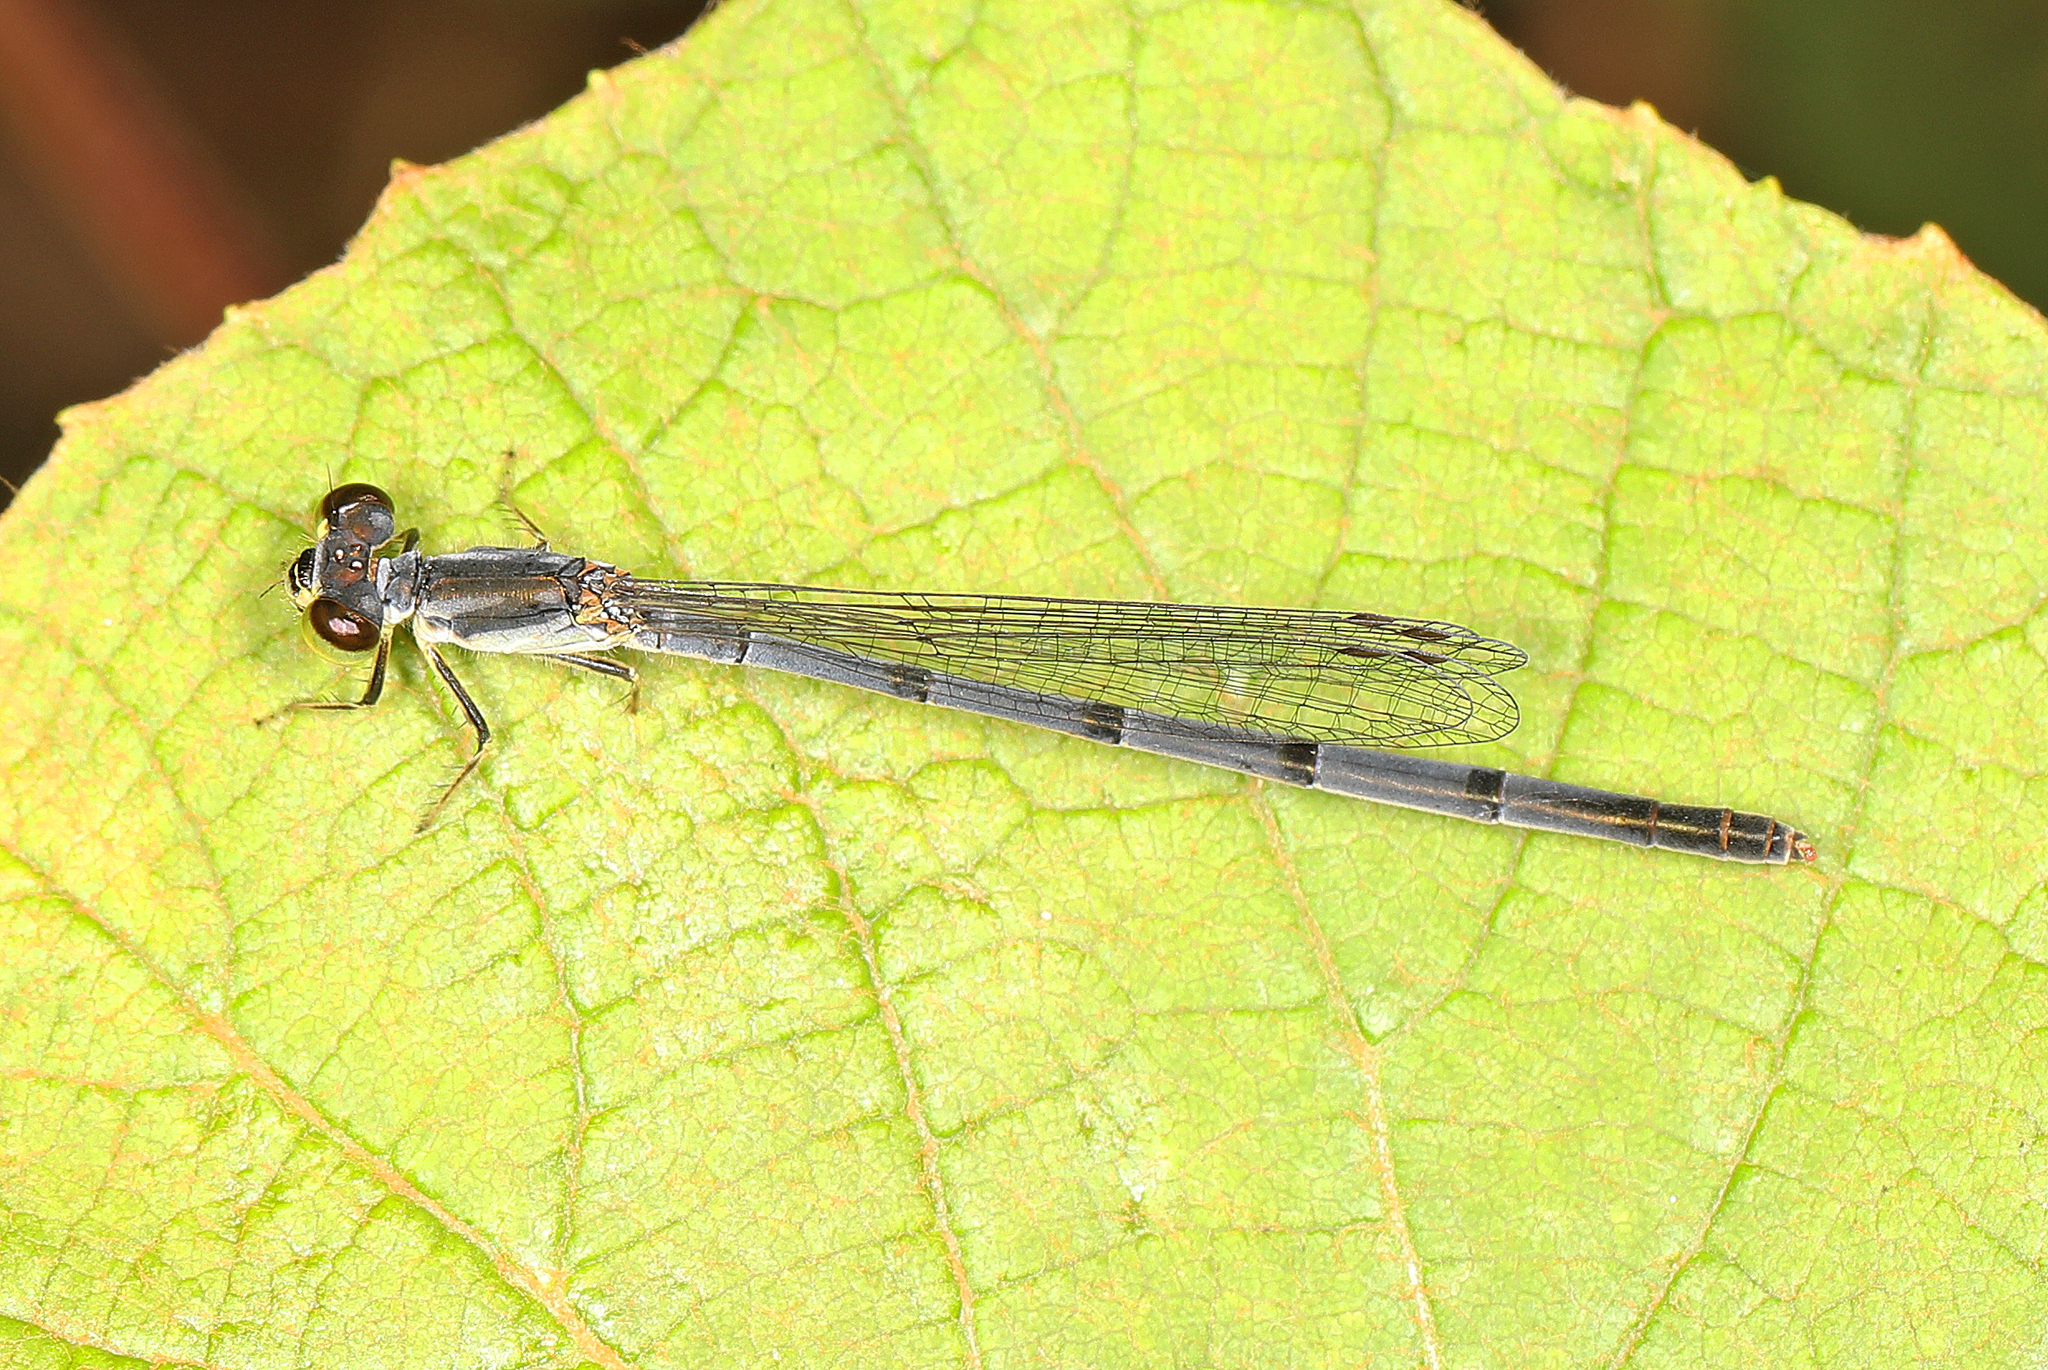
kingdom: Animalia
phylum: Arthropoda
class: Insecta
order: Odonata
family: Coenagrionidae
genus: Ischnura
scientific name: Ischnura posita
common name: Fragile forktail
